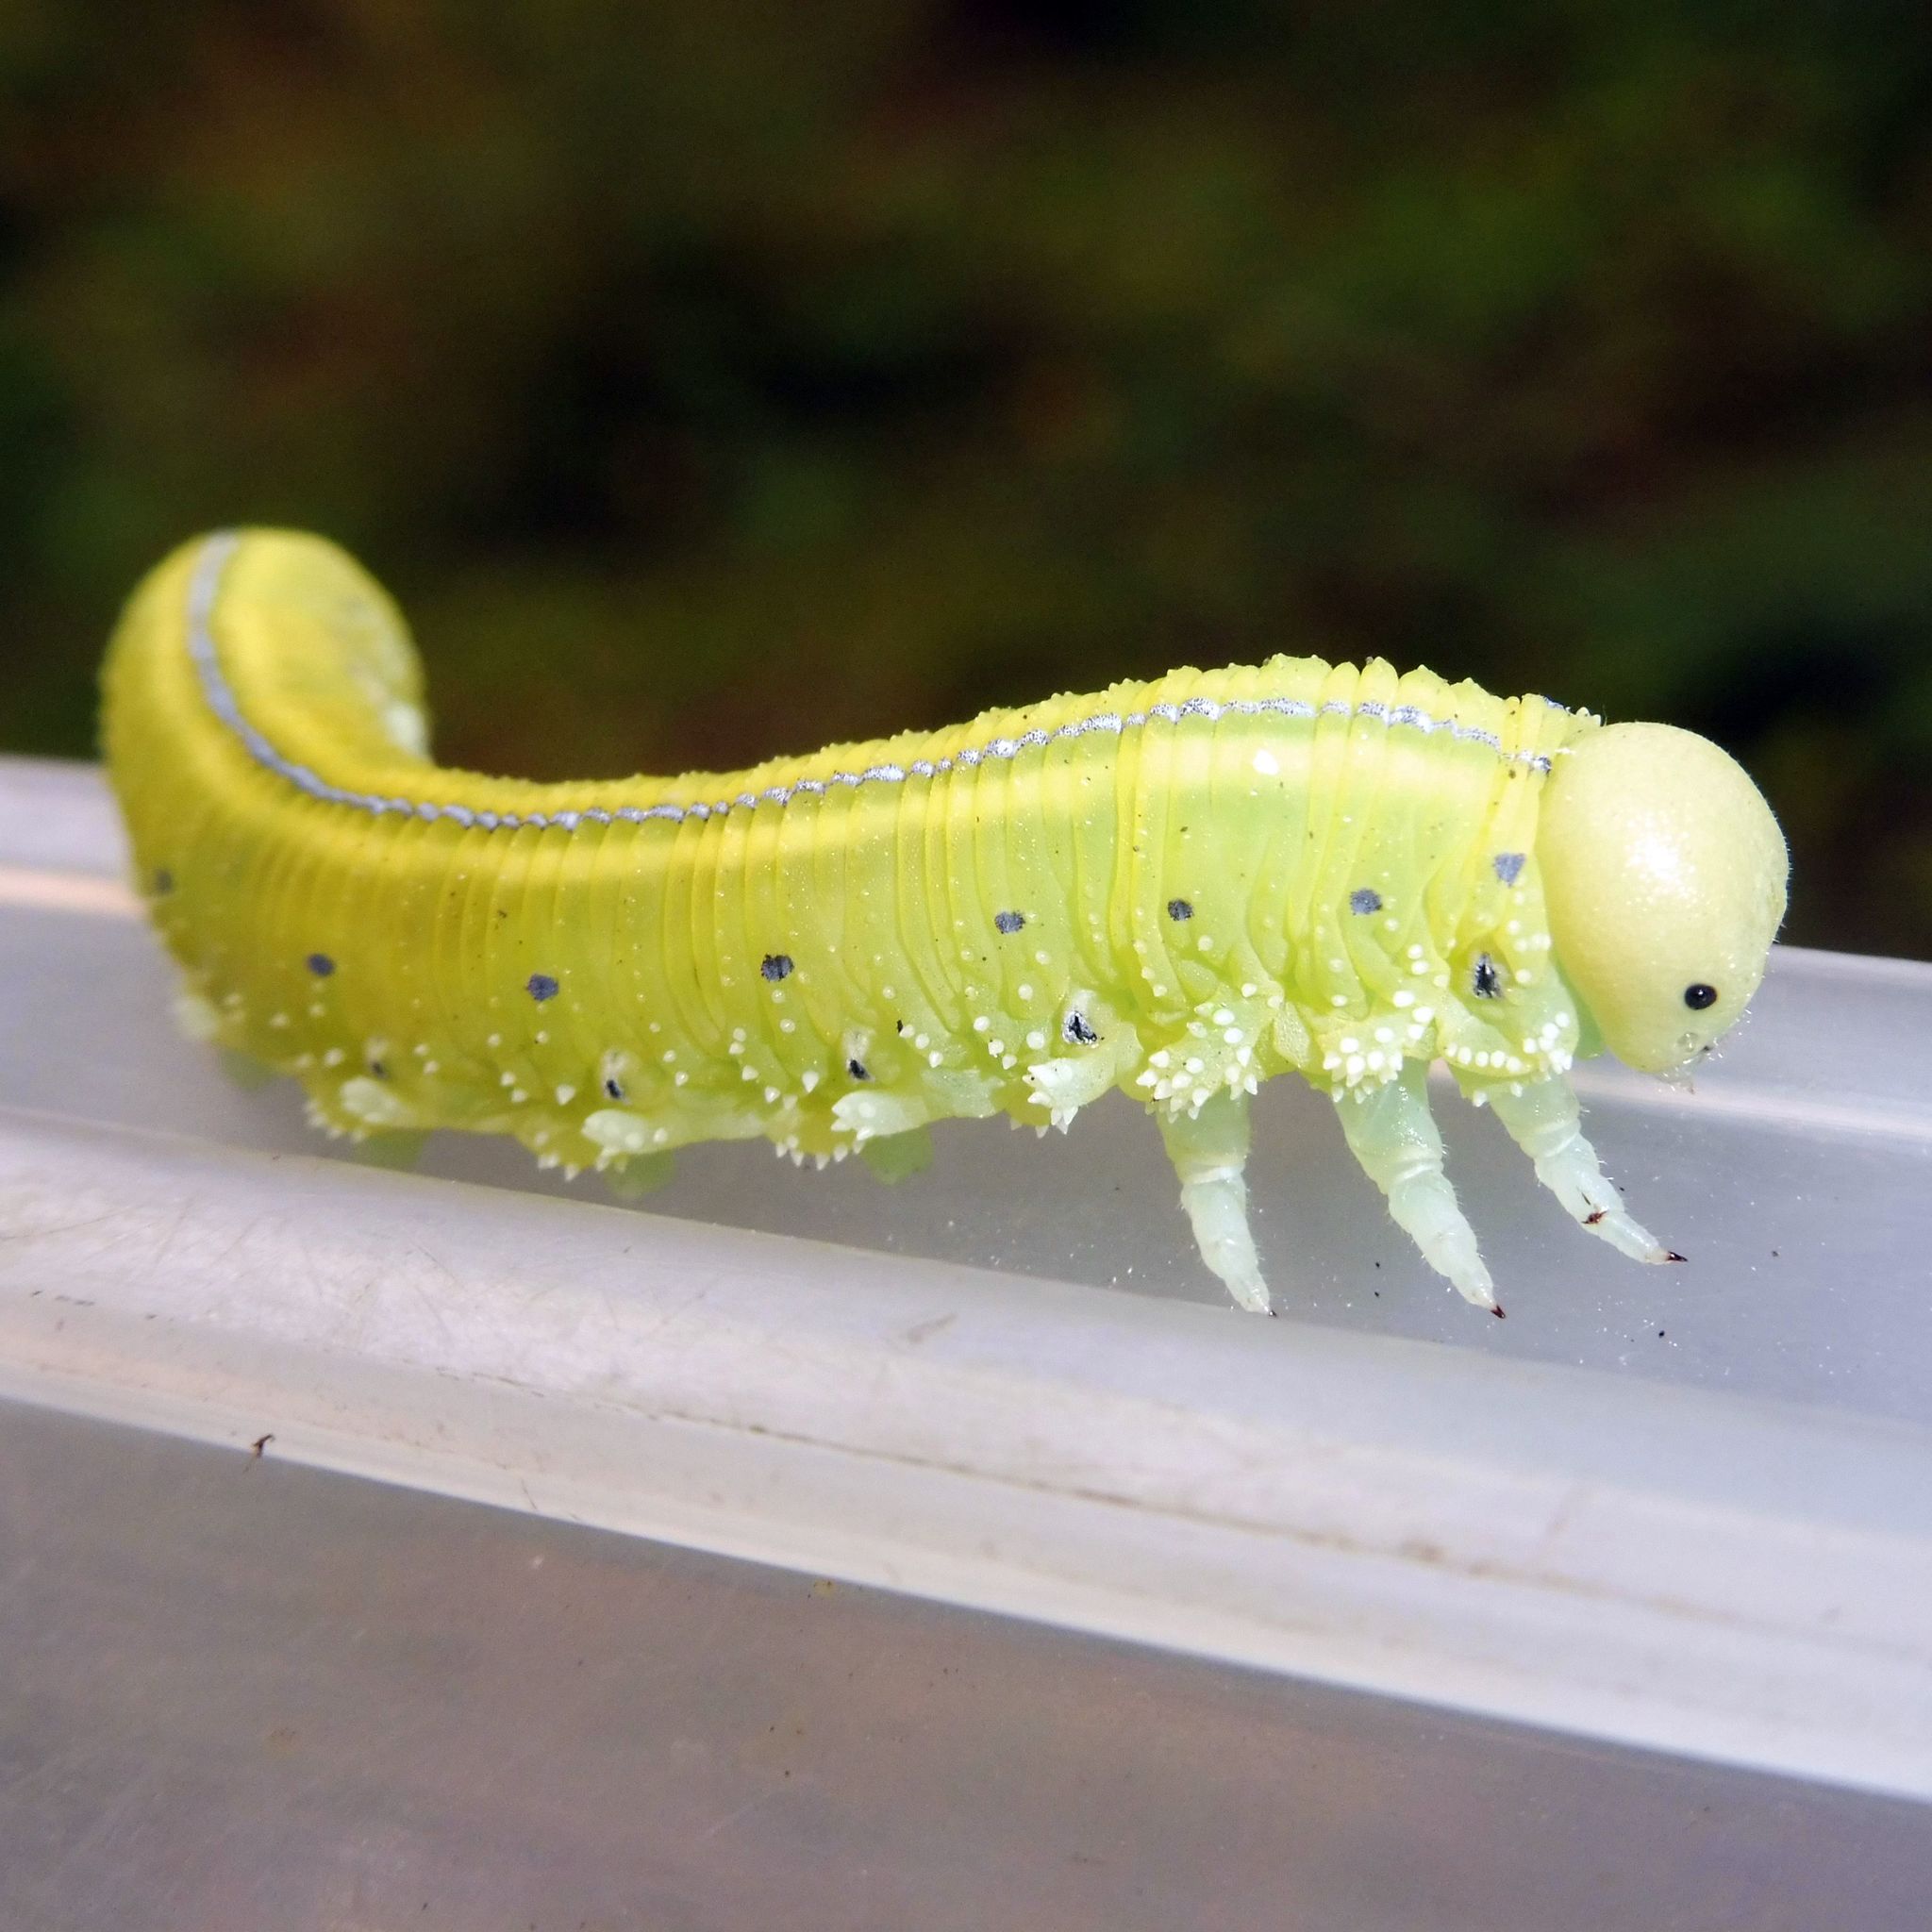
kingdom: Animalia
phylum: Arthropoda
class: Insecta
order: Hymenoptera
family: Cimbicidae
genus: Cimbex
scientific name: Cimbex connatus
